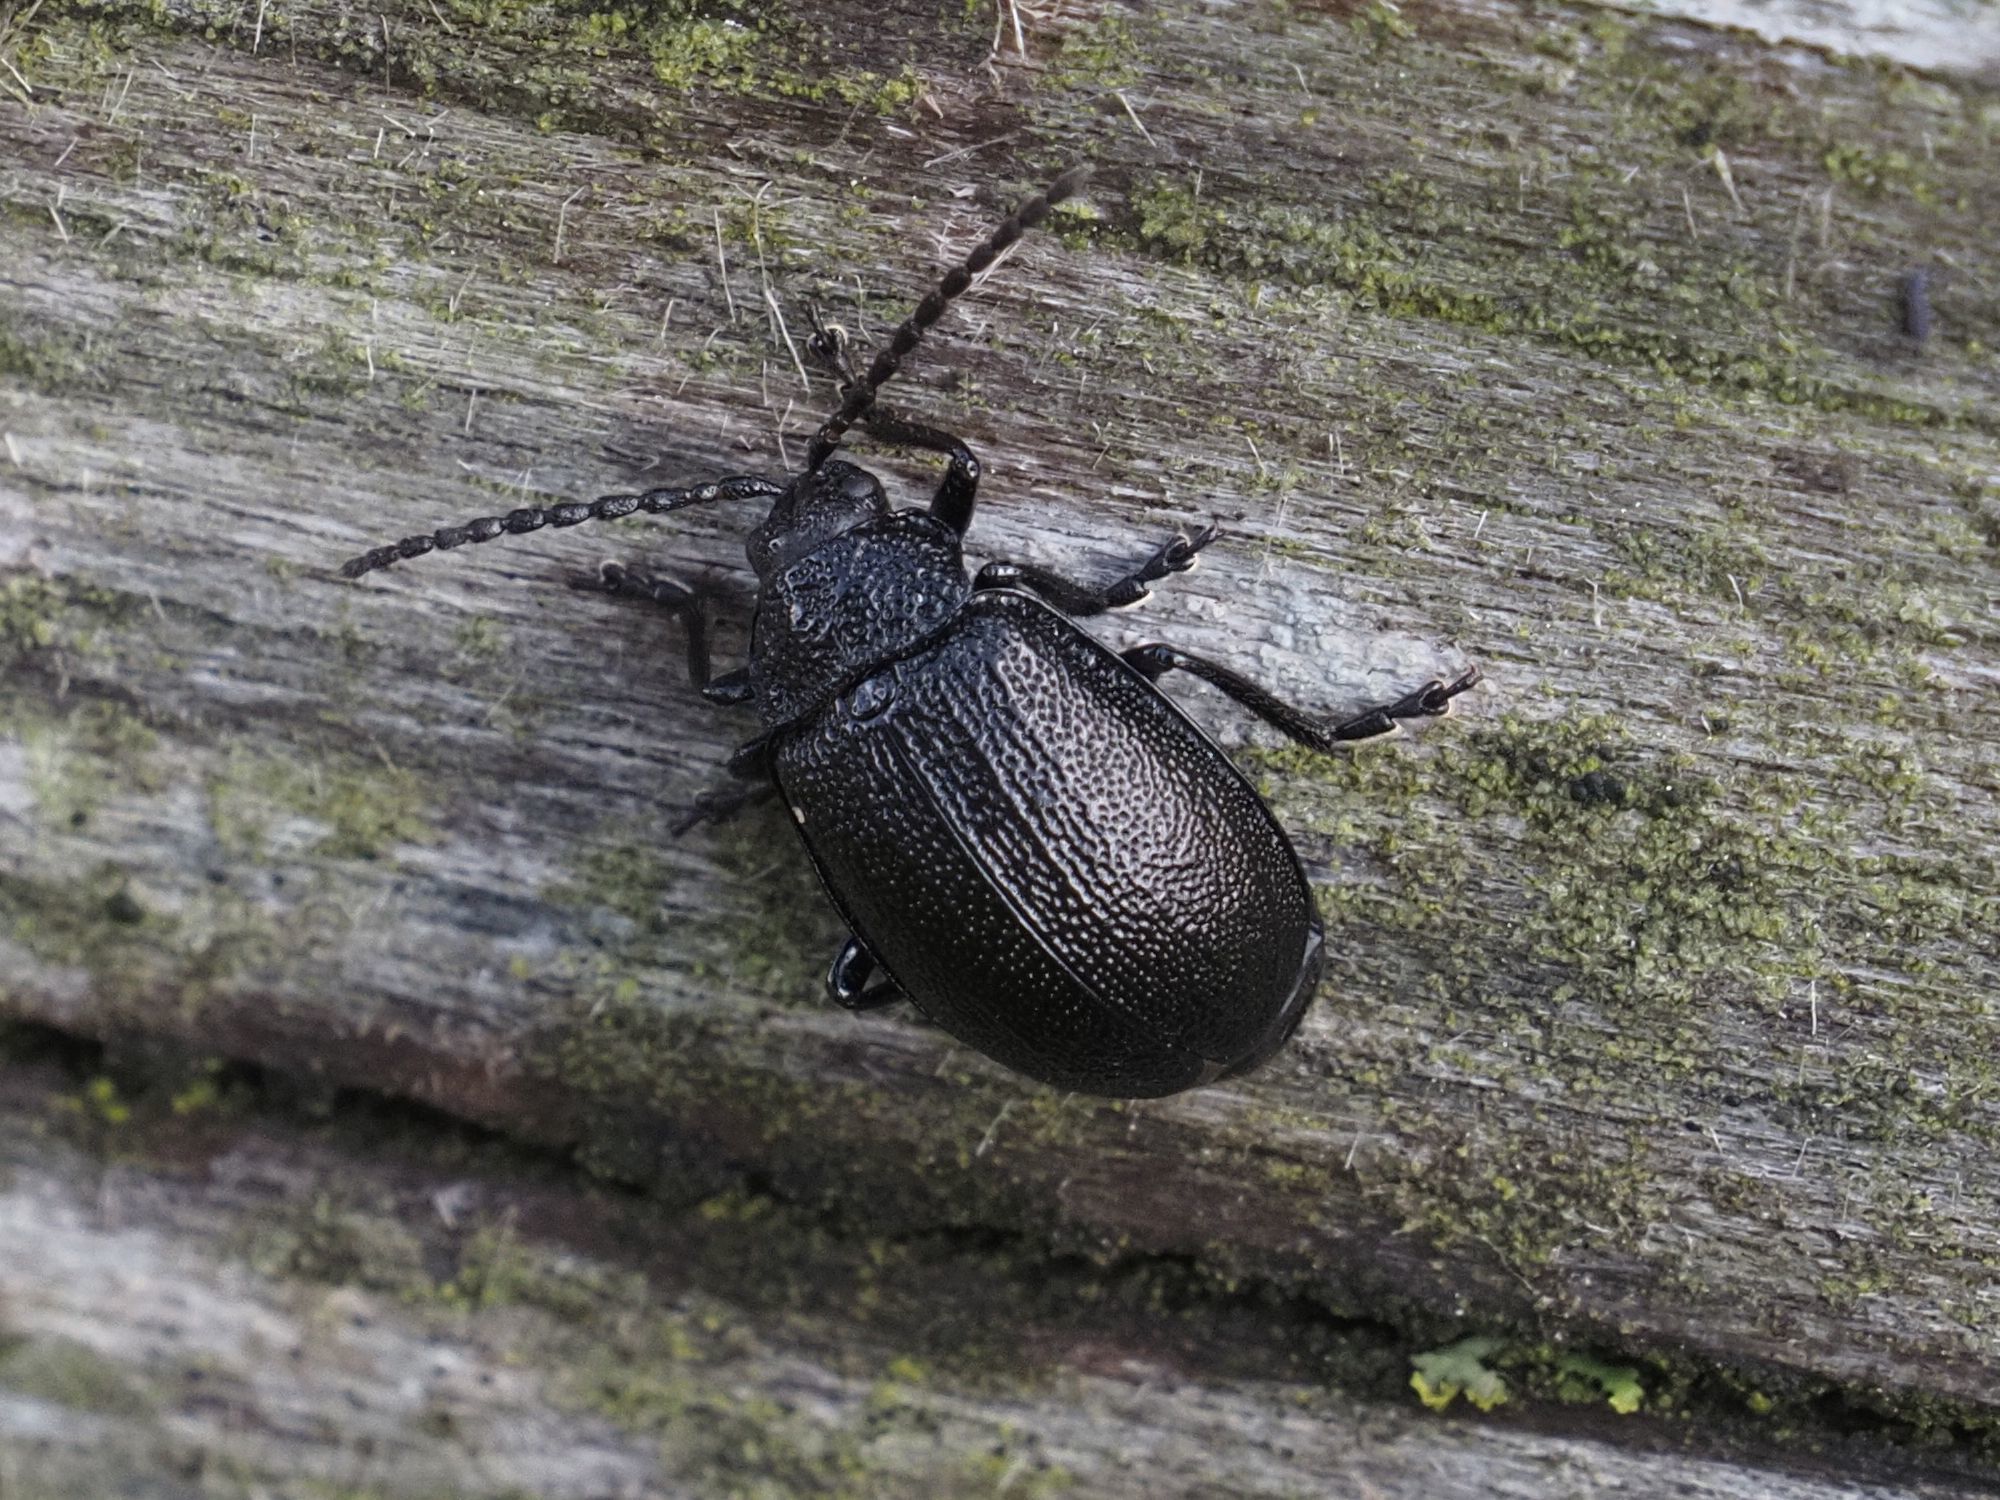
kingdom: Animalia
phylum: Arthropoda
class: Insecta
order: Coleoptera
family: Chrysomelidae
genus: Galeruca
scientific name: Galeruca tanaceti
